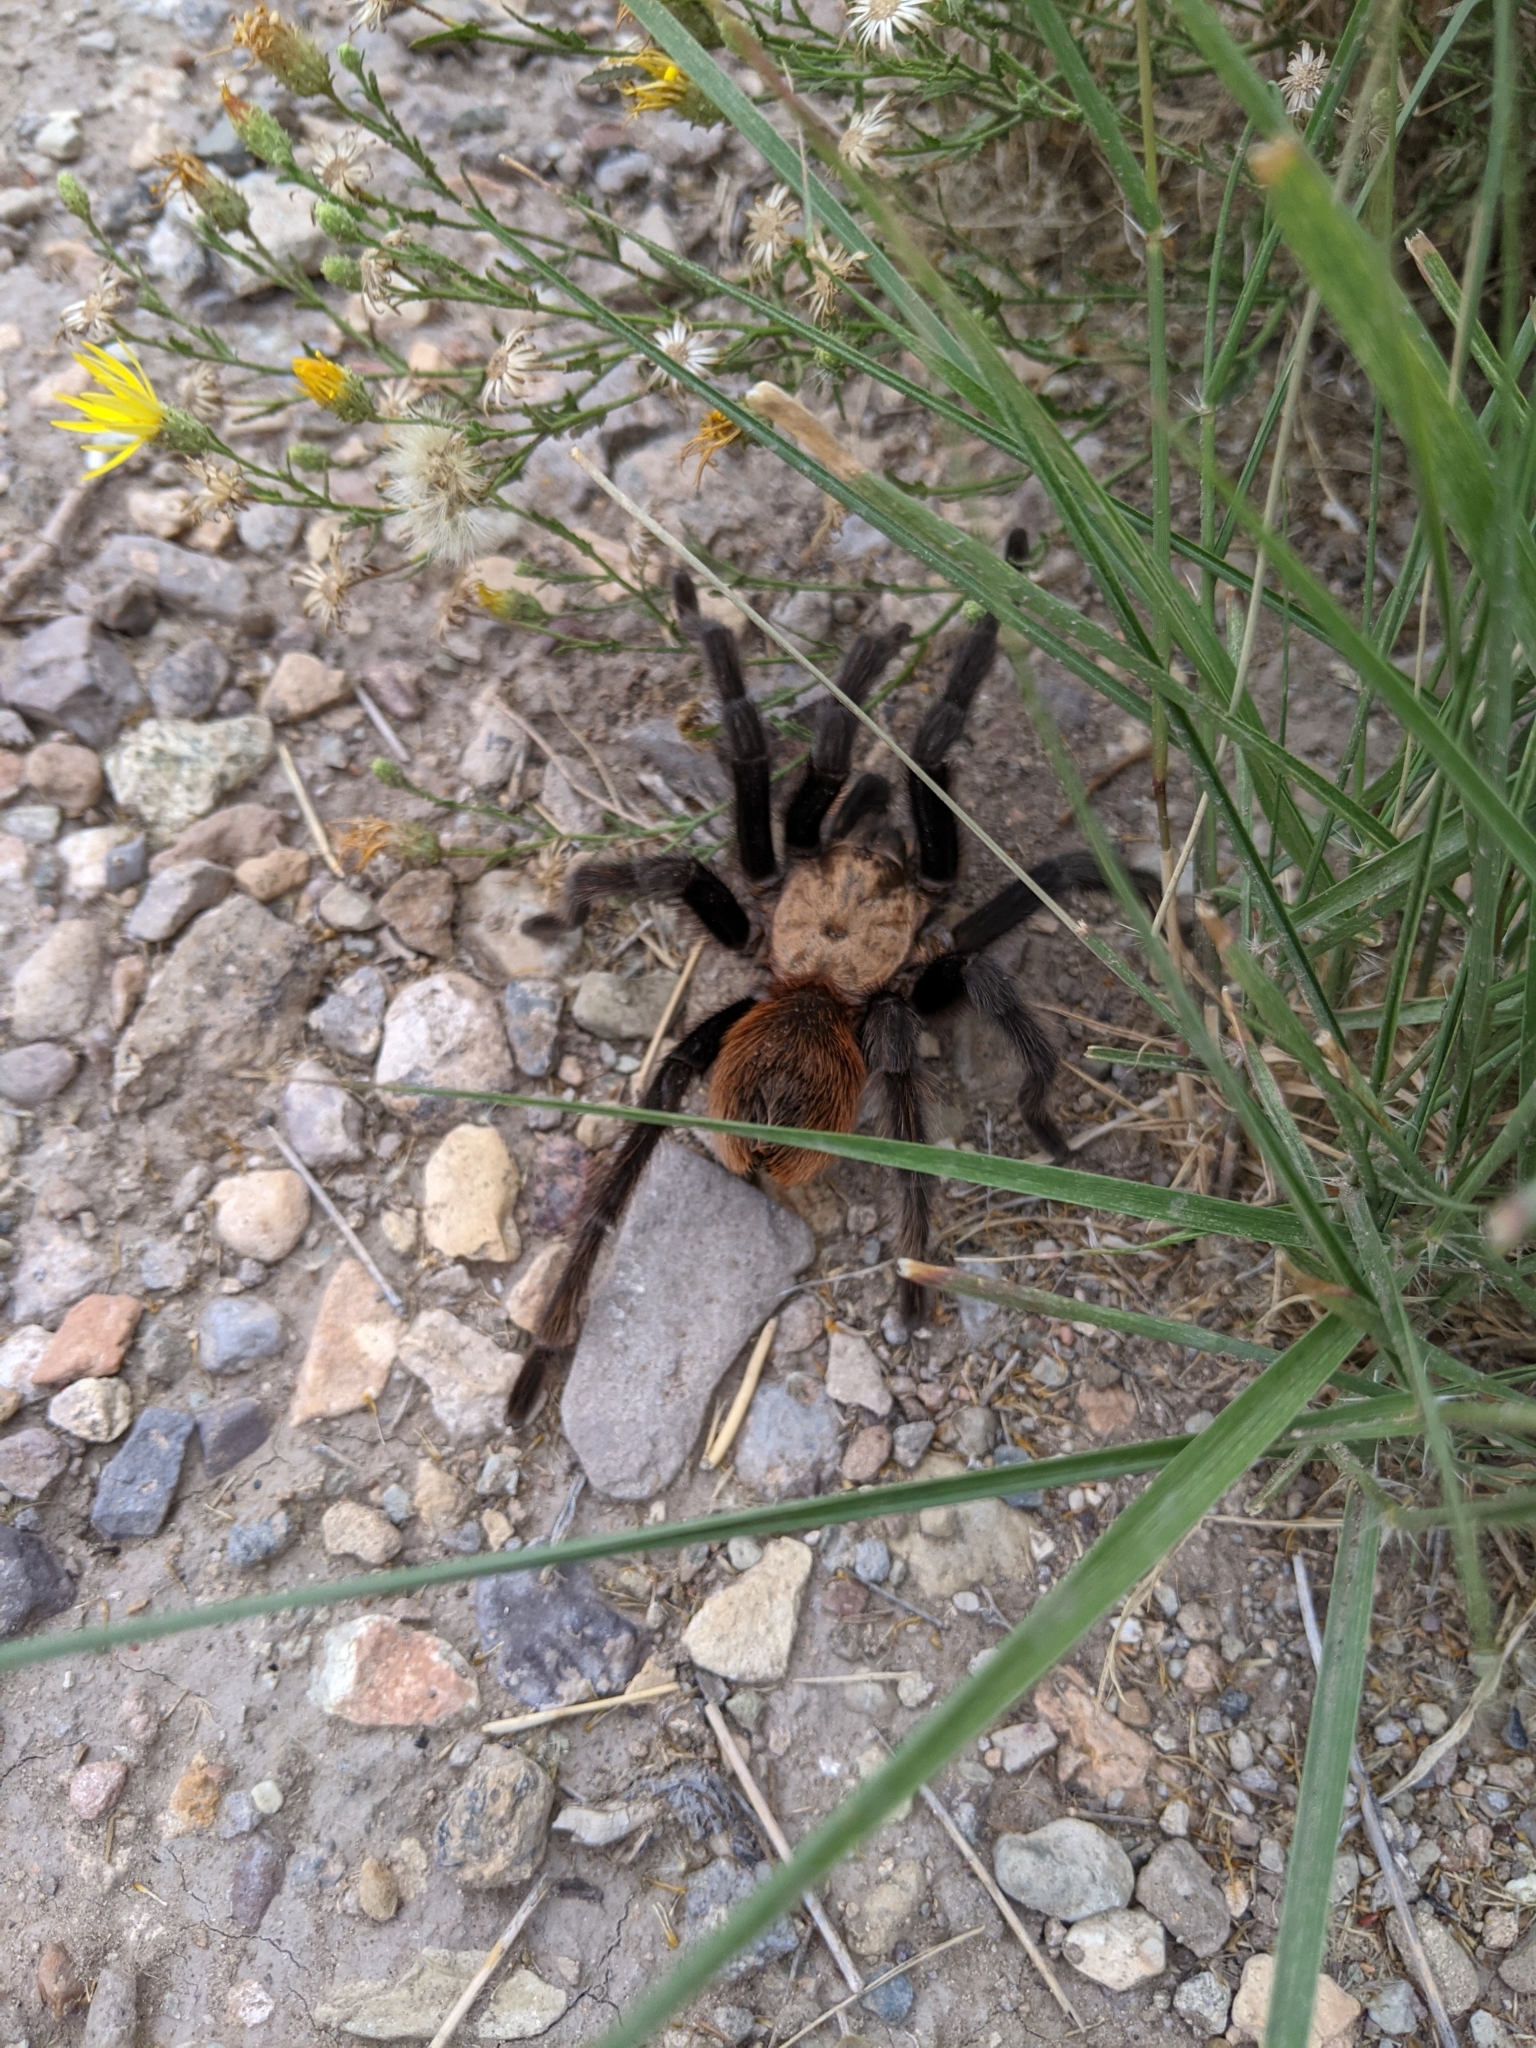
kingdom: Animalia
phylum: Arthropoda
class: Arachnida
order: Araneae
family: Theraphosidae
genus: Aphonopelma
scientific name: Aphonopelma hentzi
